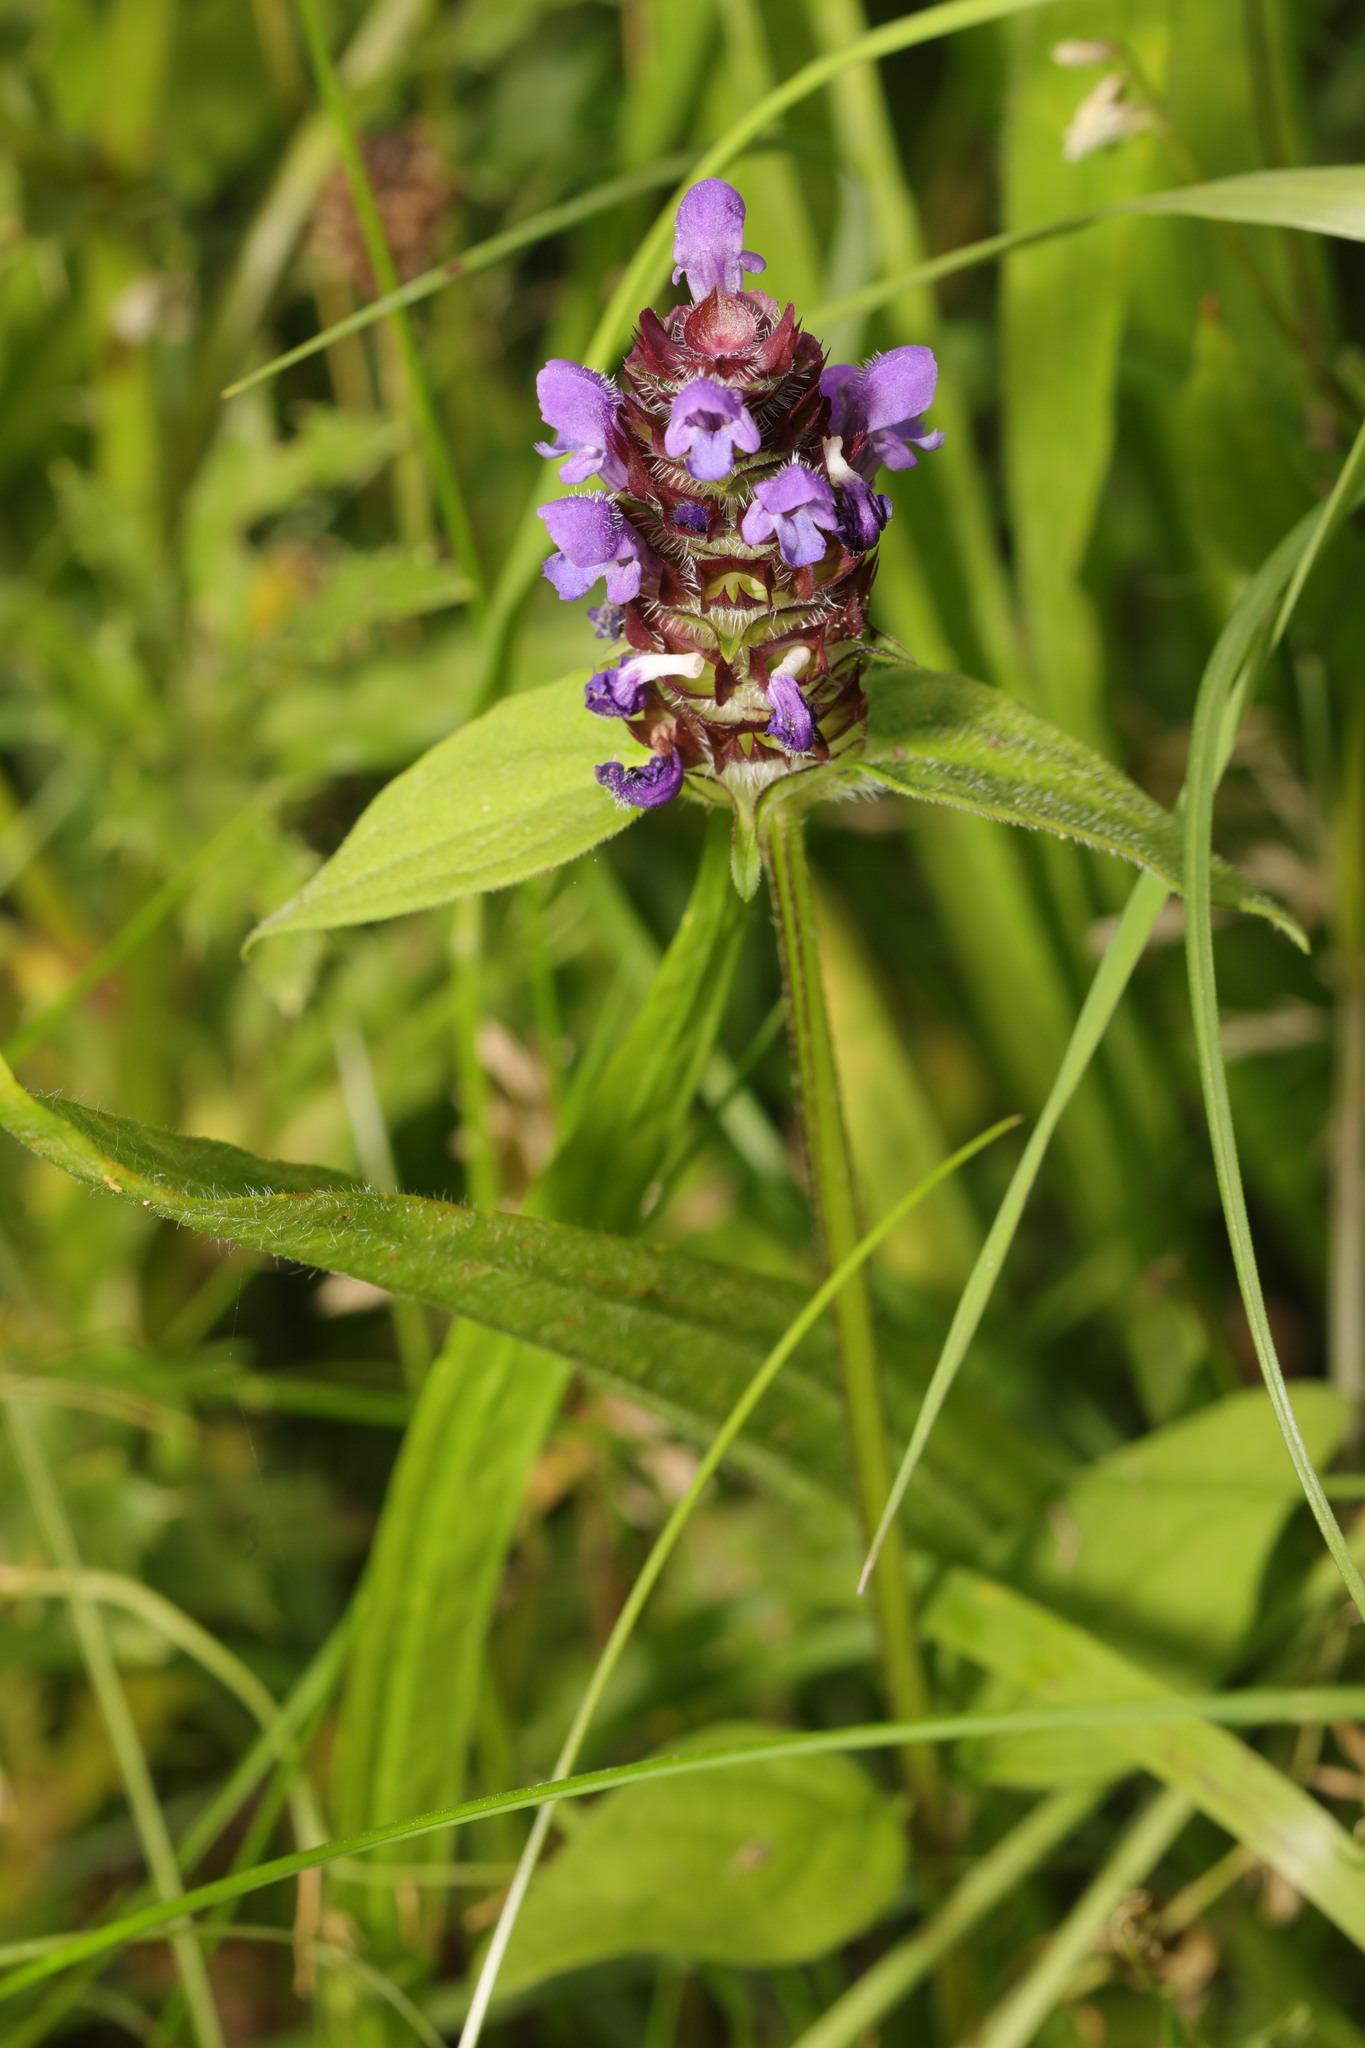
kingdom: Plantae
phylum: Tracheophyta
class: Magnoliopsida
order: Lamiales
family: Lamiaceae
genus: Prunella
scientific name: Prunella vulgaris
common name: Heal-all
